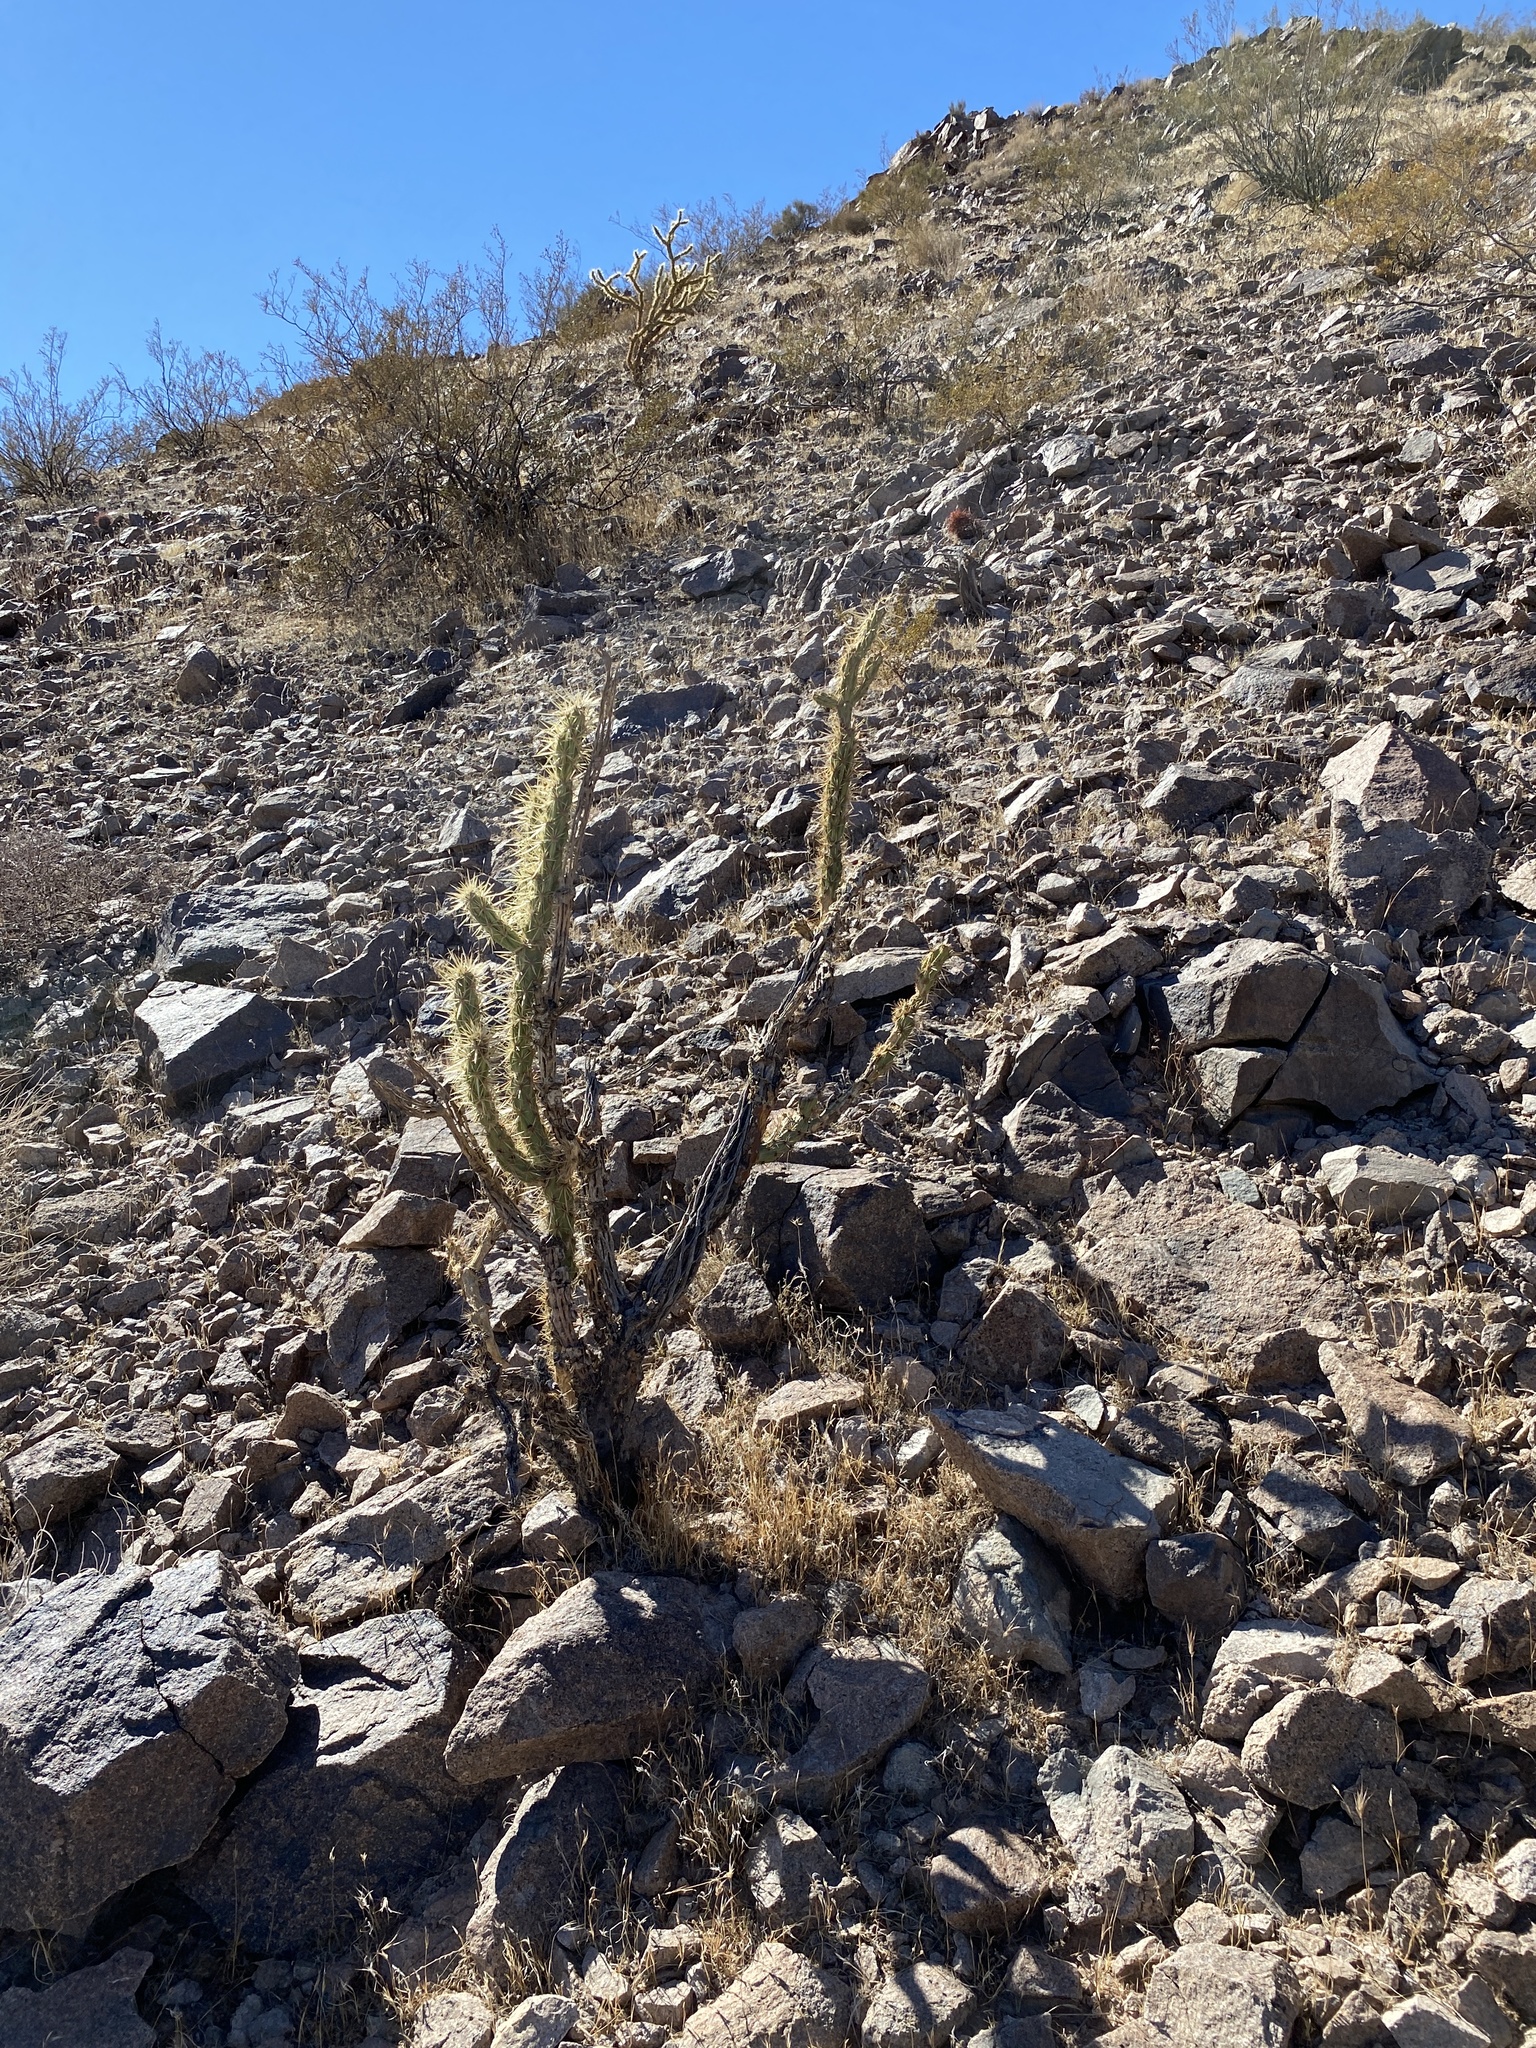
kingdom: Plantae
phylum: Tracheophyta
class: Magnoliopsida
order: Caryophyllales
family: Cactaceae
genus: Cylindropuntia
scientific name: Cylindropuntia acanthocarpa
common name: Buckhorn cholla
